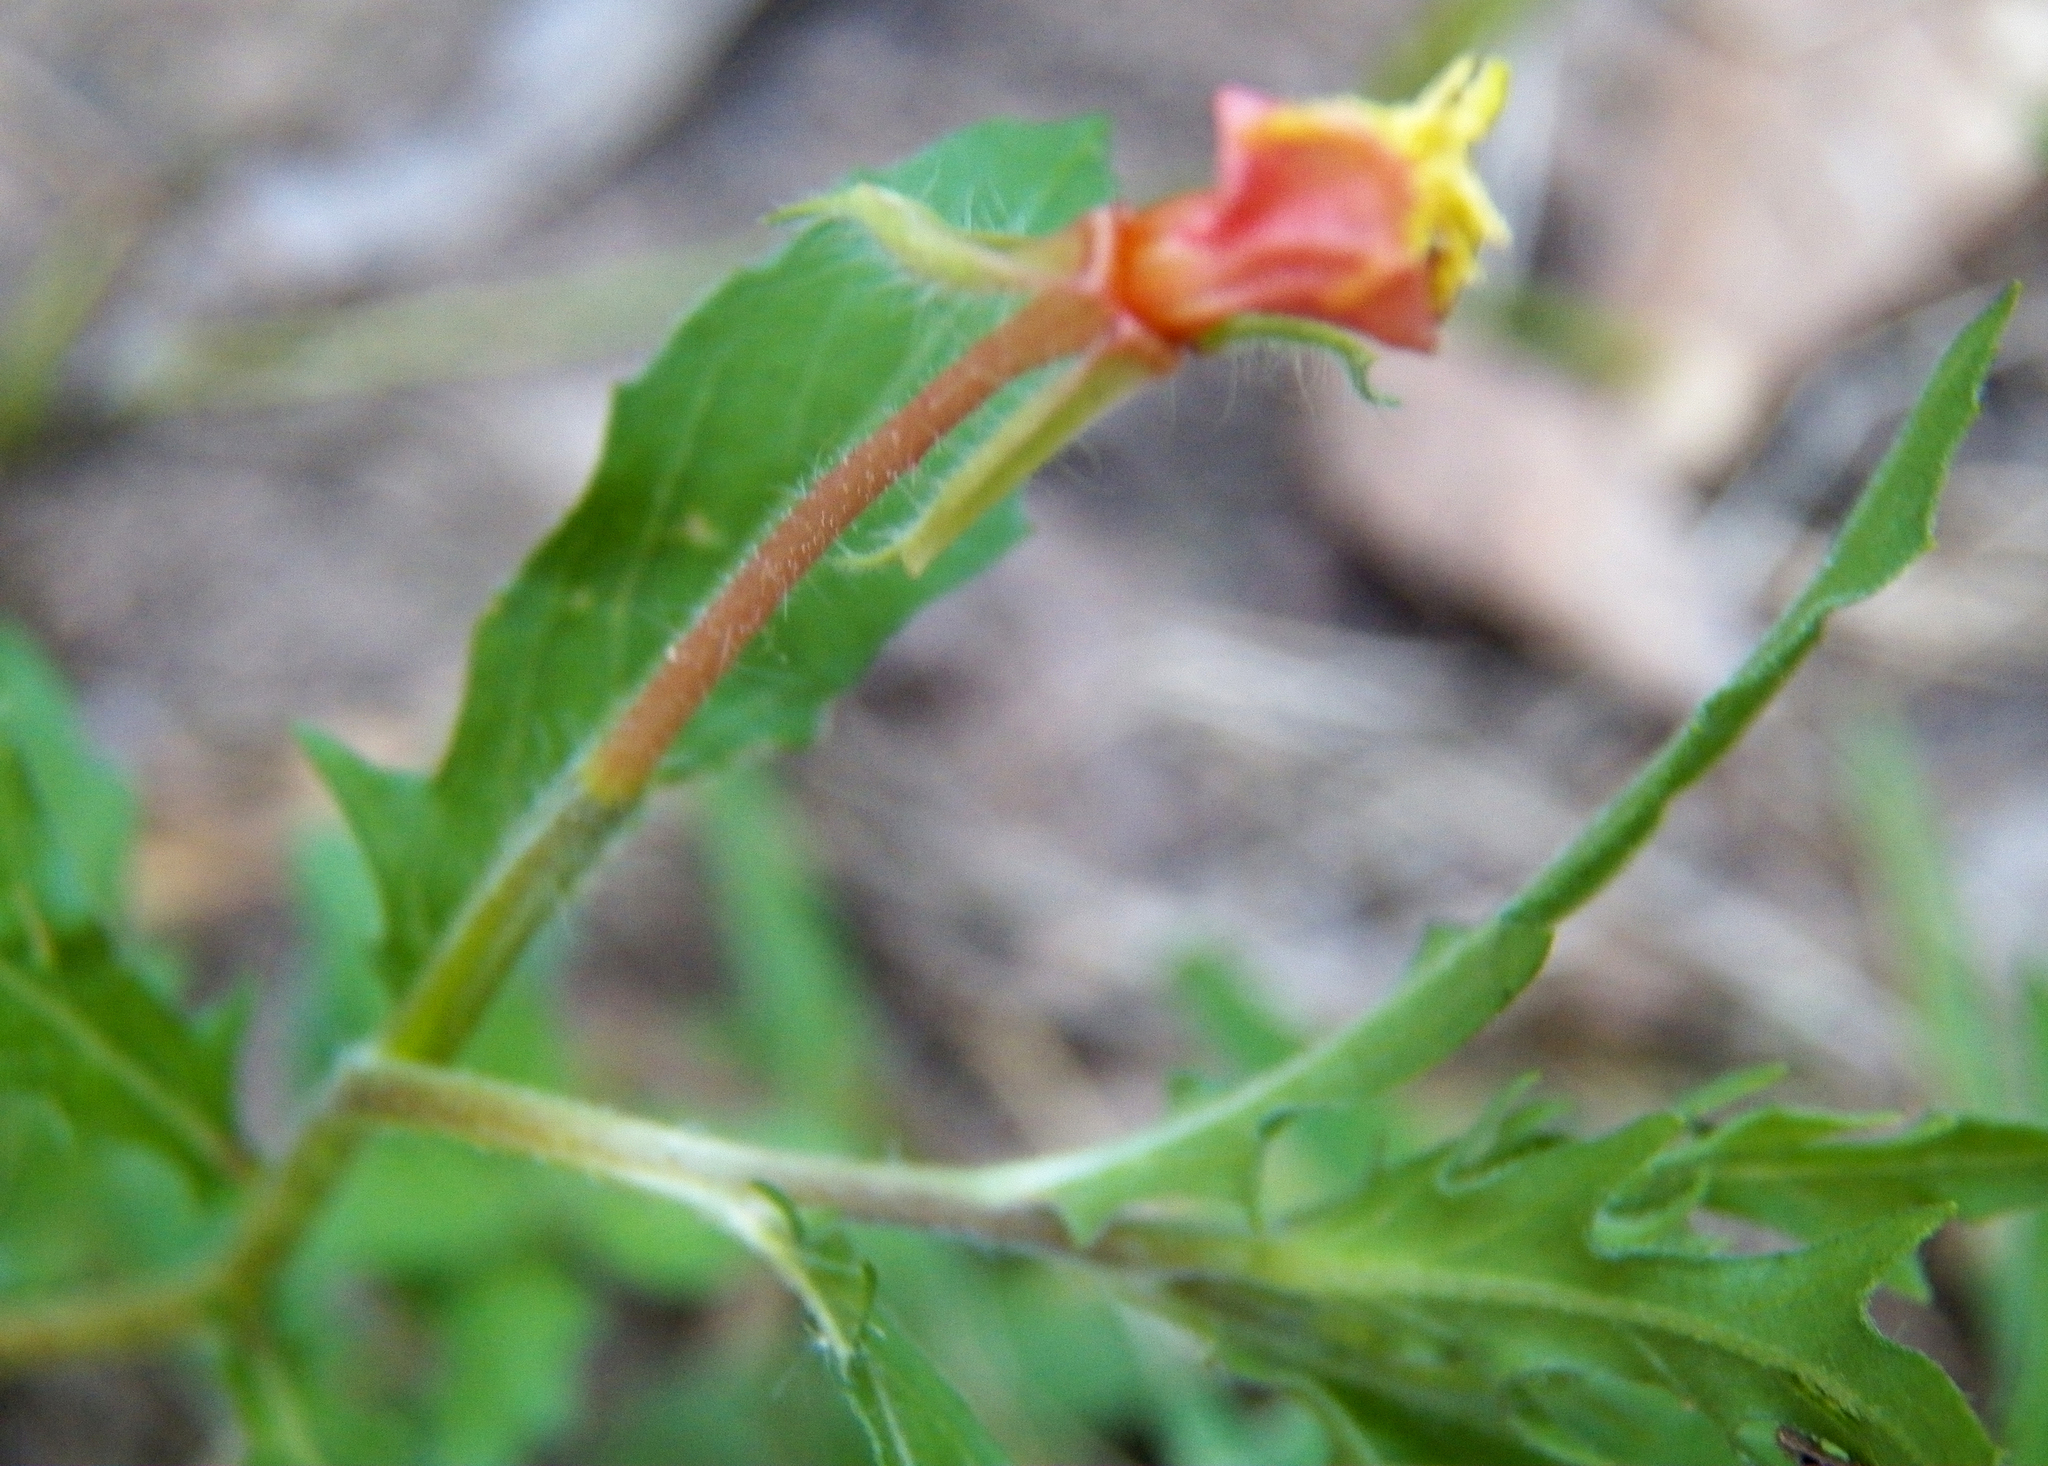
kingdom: Plantae
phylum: Tracheophyta
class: Magnoliopsida
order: Myrtales
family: Onagraceae
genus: Oenothera
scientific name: Oenothera laciniata
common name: Cut-leaved evening-primrose
